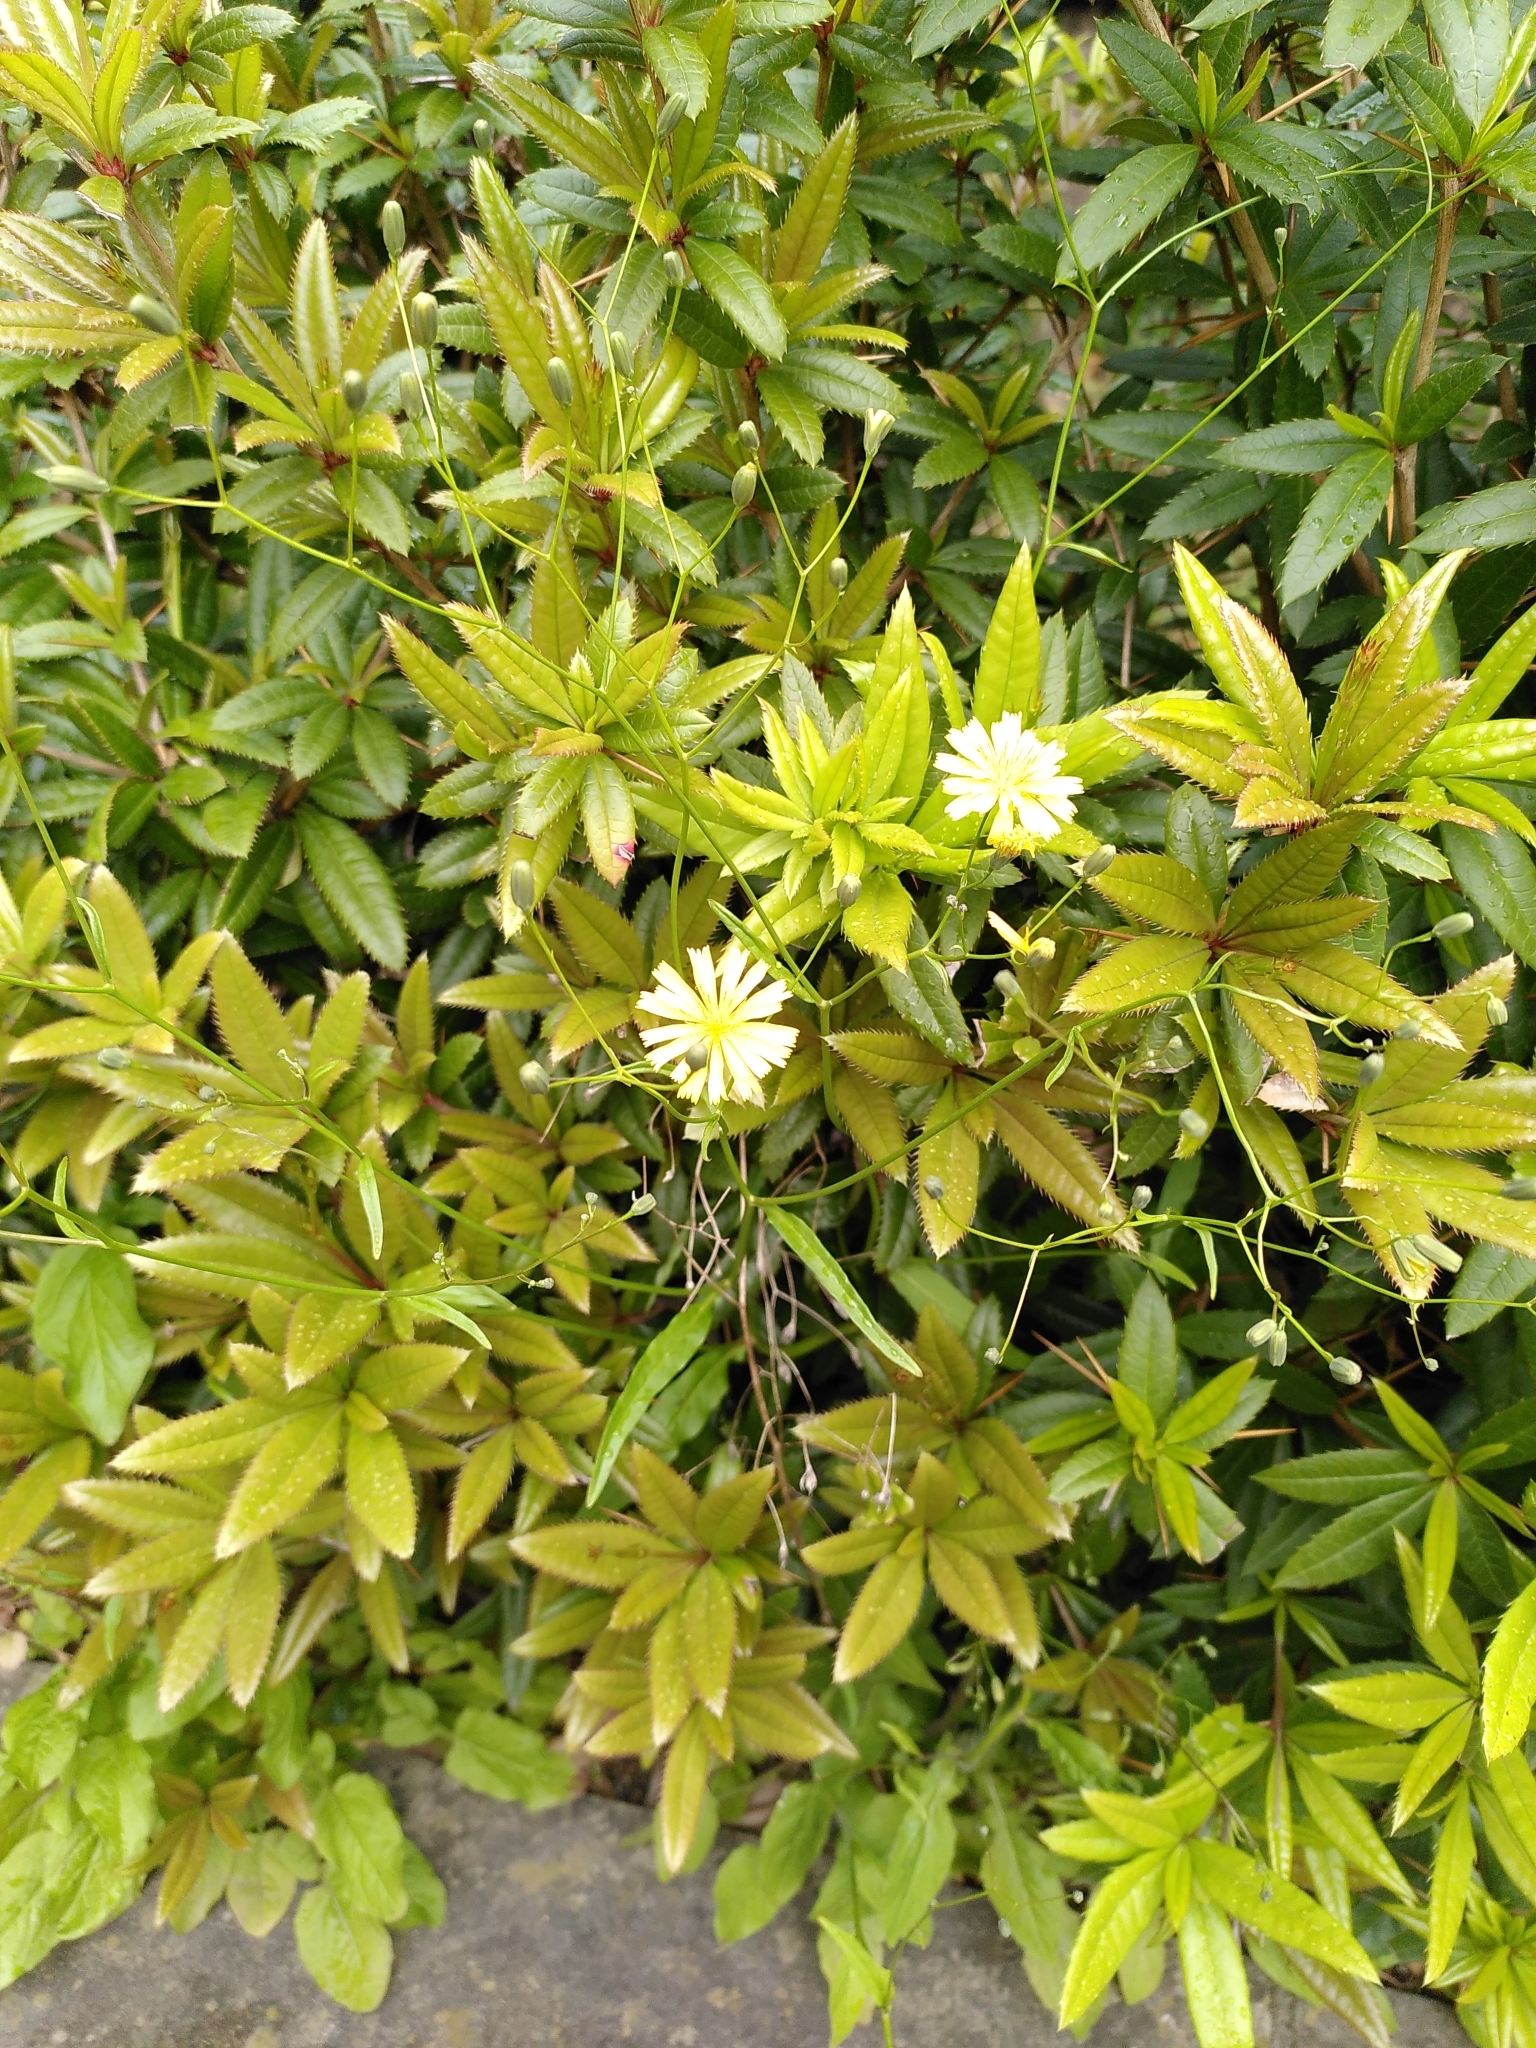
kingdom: Plantae
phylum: Tracheophyta
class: Magnoliopsida
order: Asterales
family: Asteraceae
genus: Lapsana
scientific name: Lapsana communis
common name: Nipplewort
